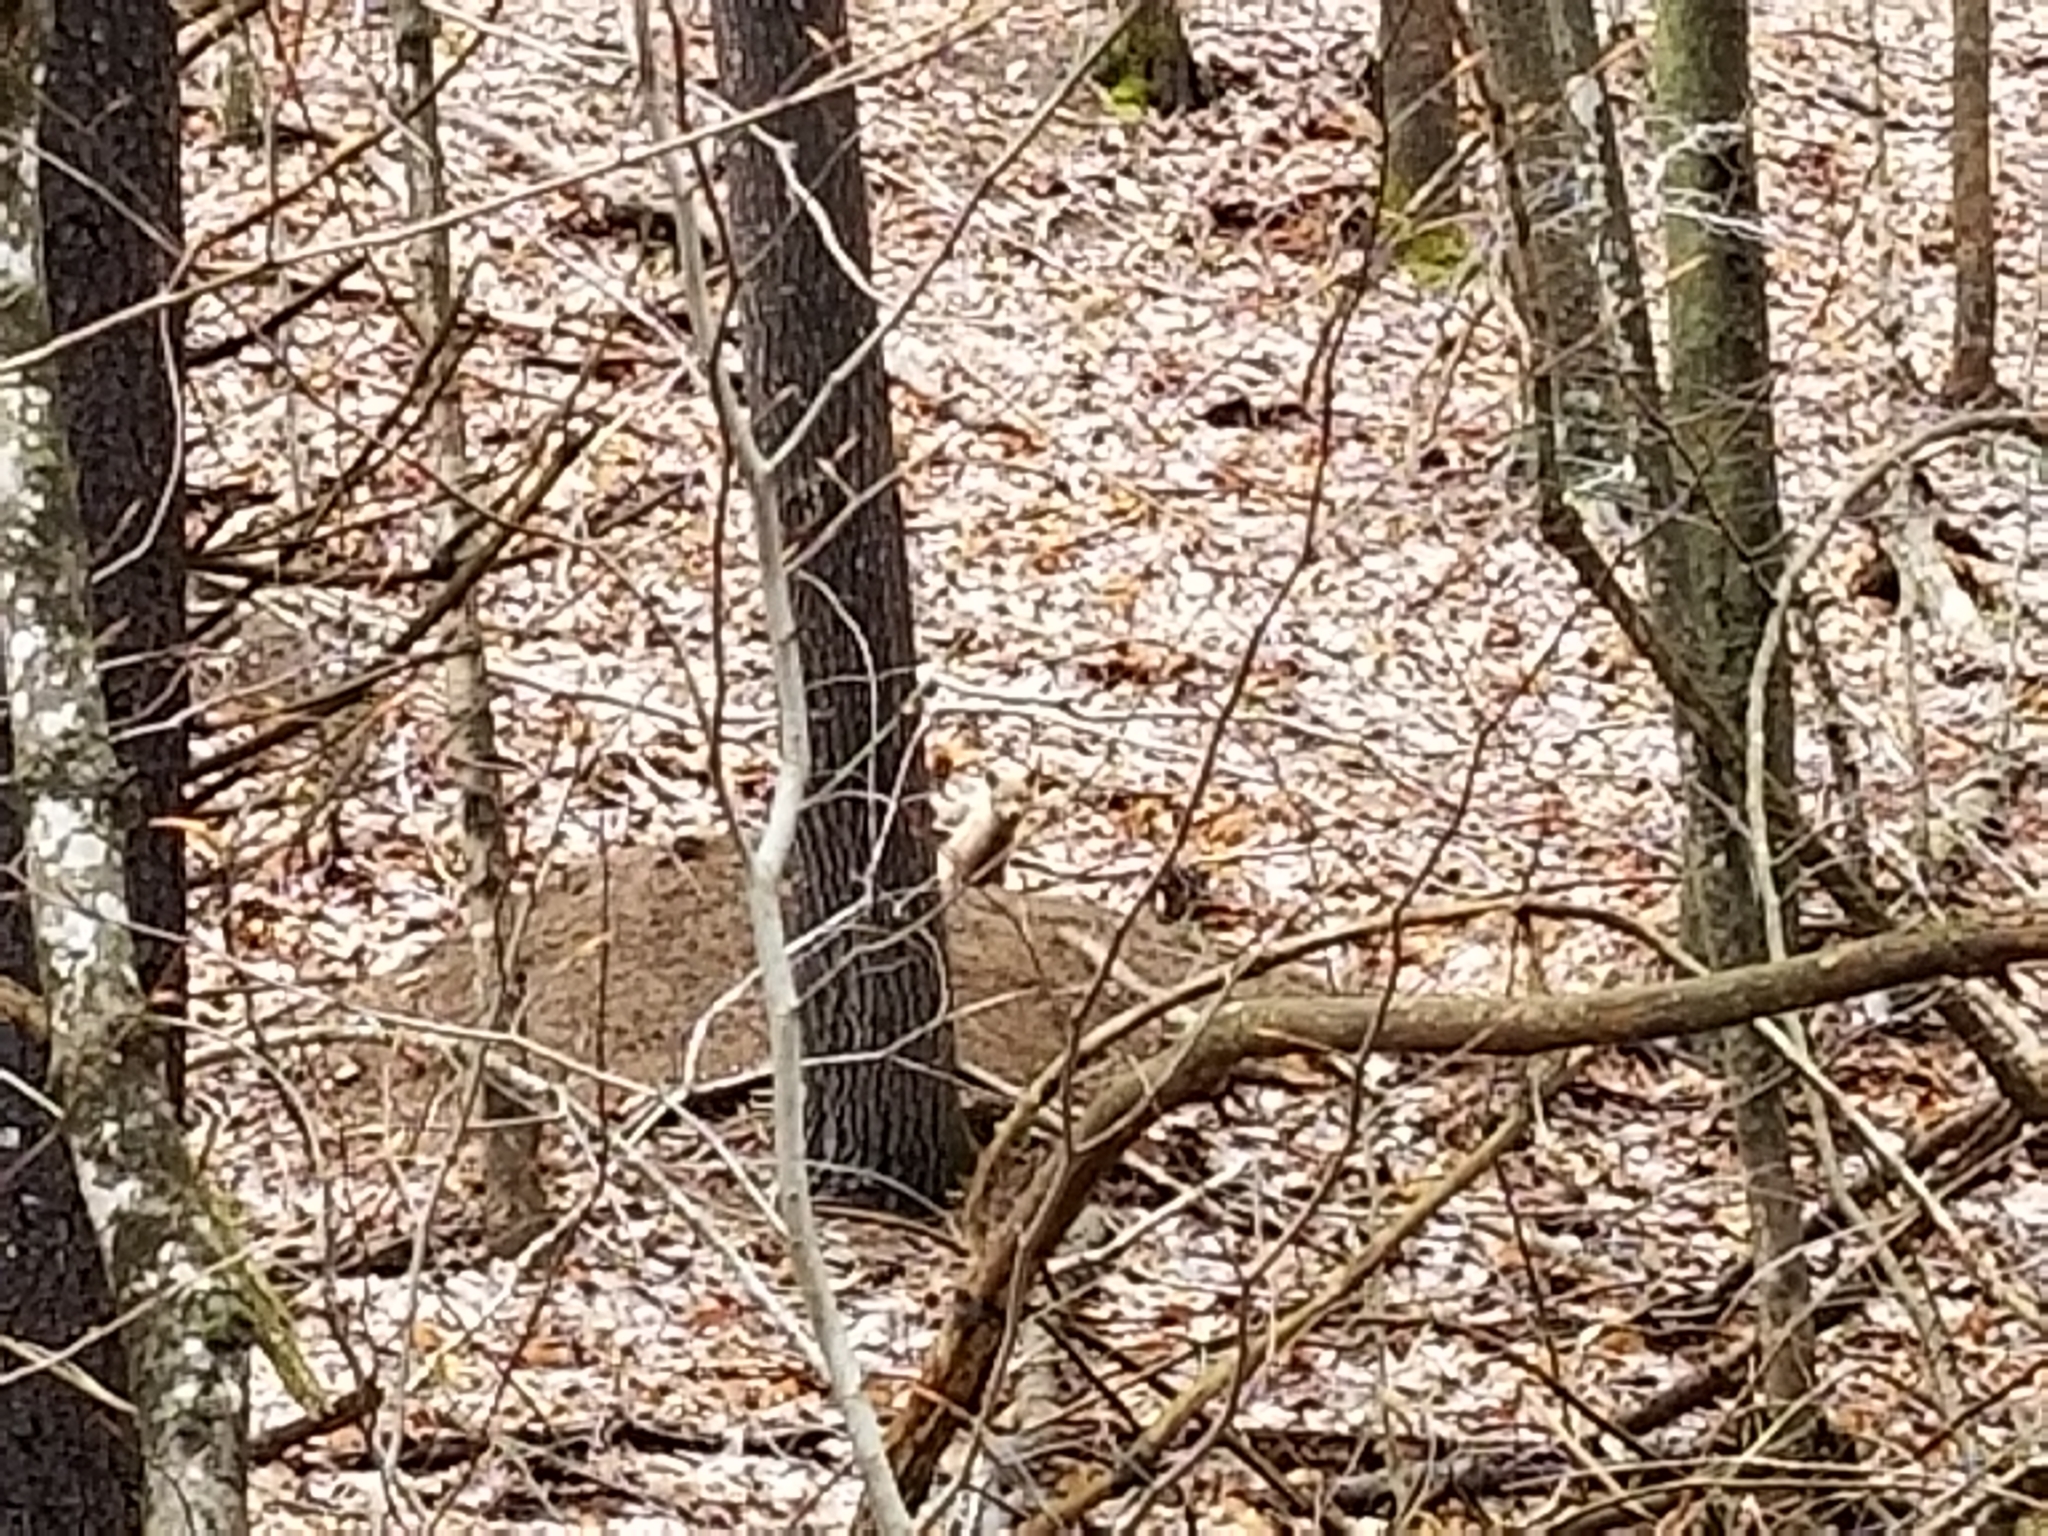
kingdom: Animalia
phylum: Chordata
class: Mammalia
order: Carnivora
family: Canidae
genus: Vulpes
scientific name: Vulpes vulpes
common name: Red fox
